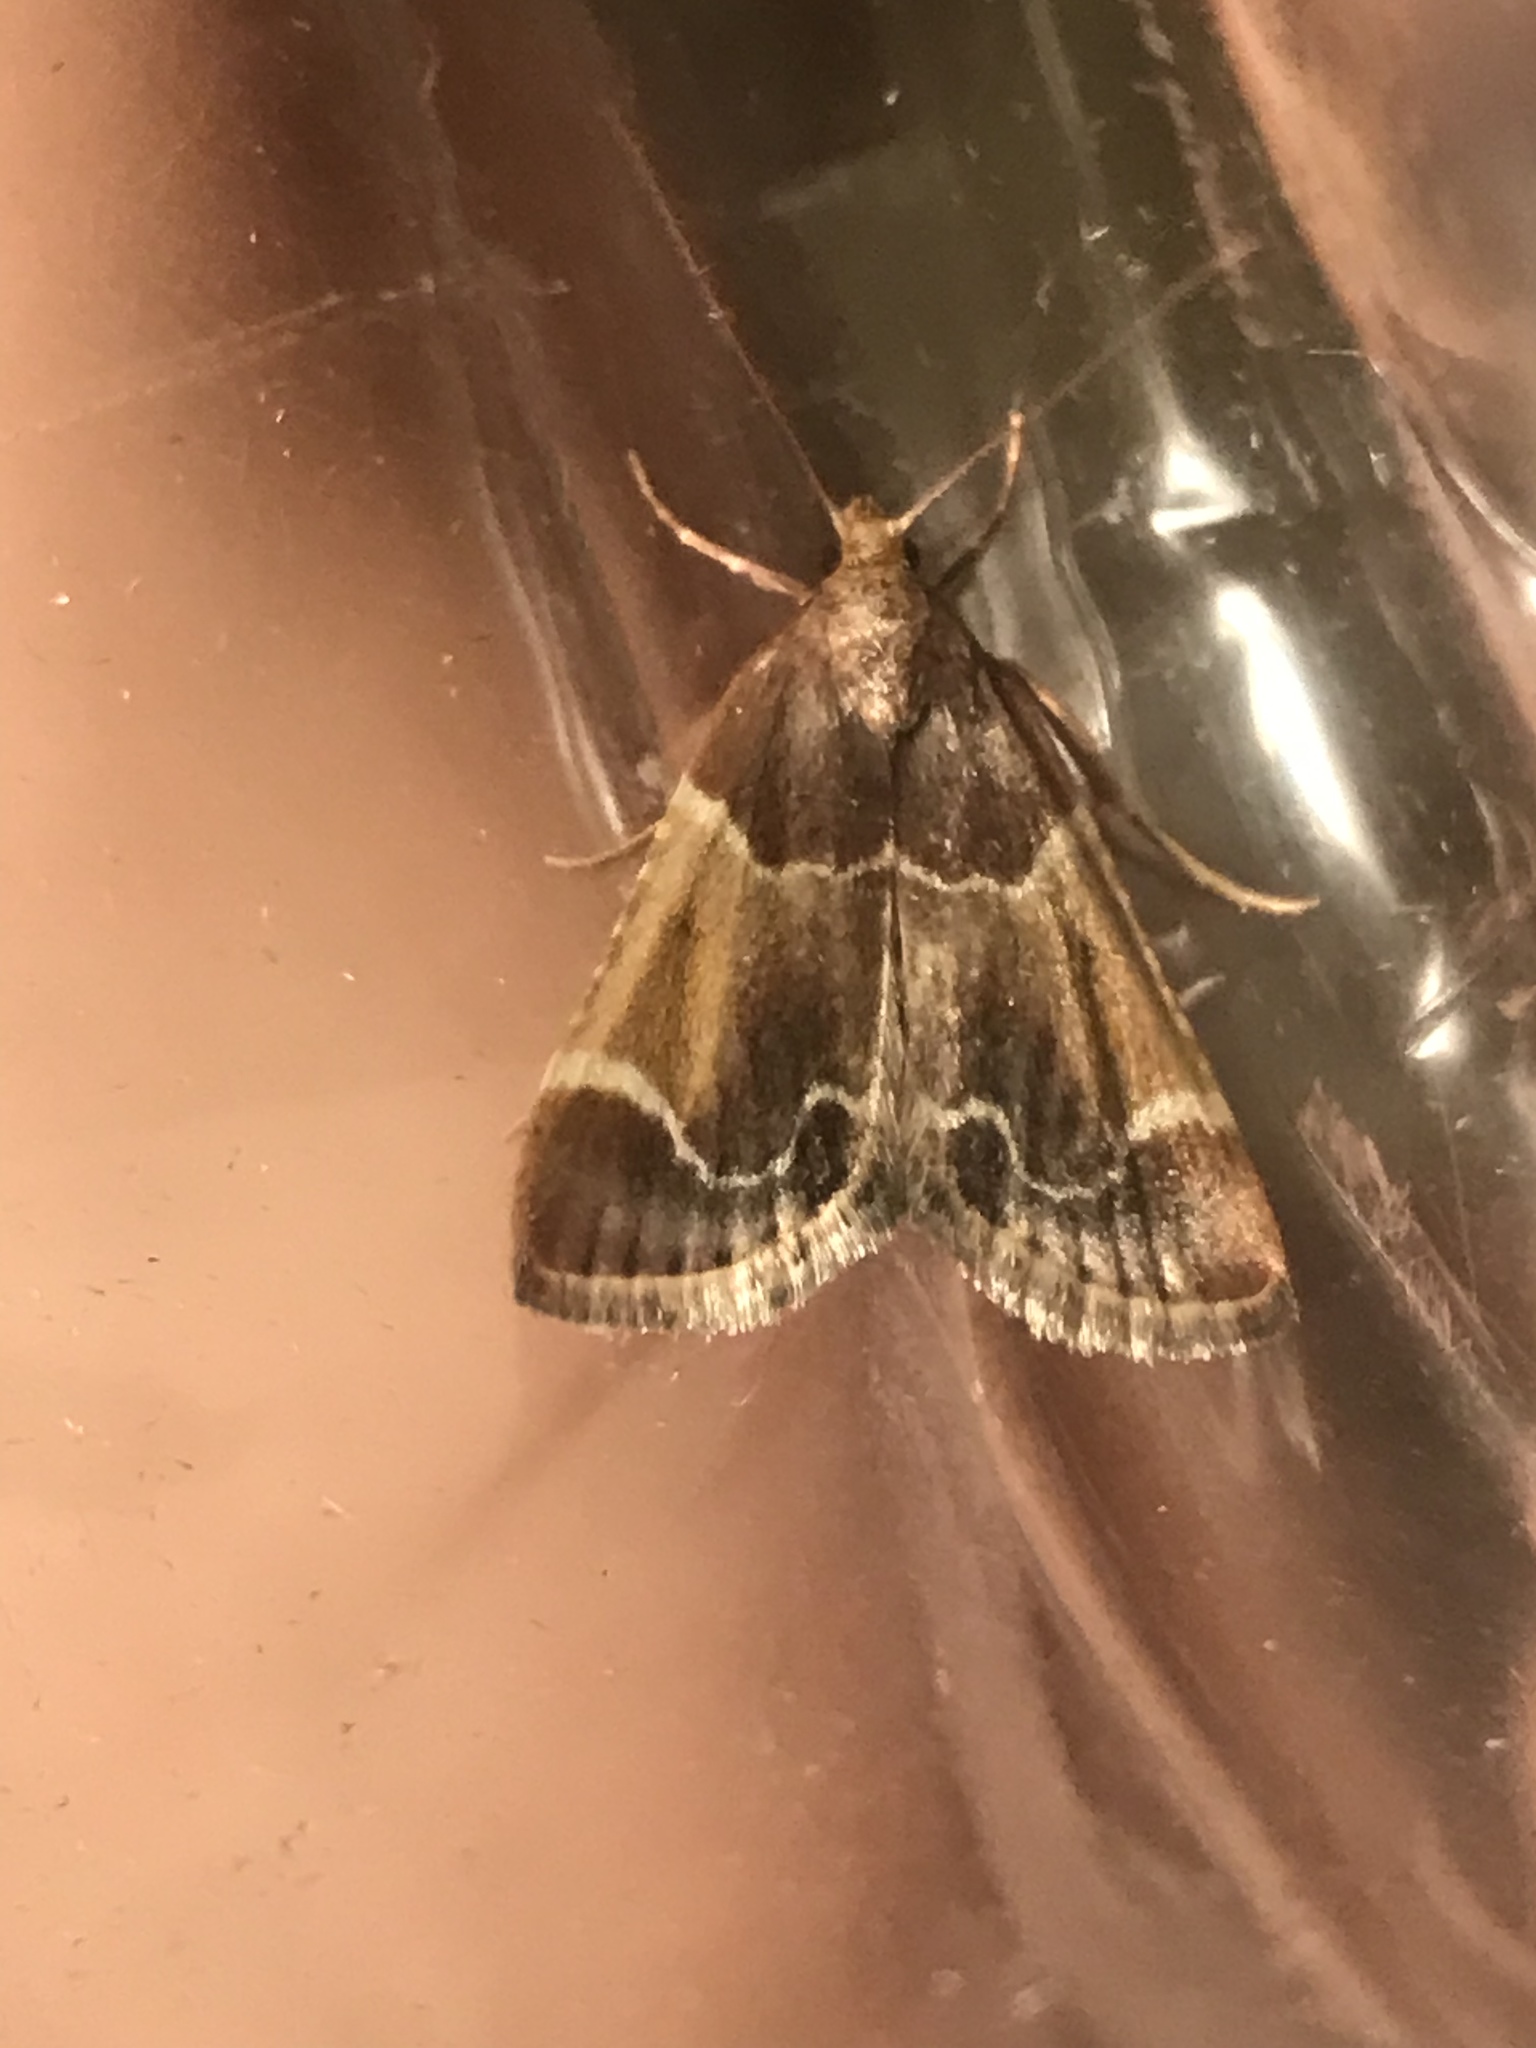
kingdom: Animalia
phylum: Arthropoda
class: Insecta
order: Lepidoptera
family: Pyralidae
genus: Pyralis
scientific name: Pyralis farinalis
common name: Meal moth
